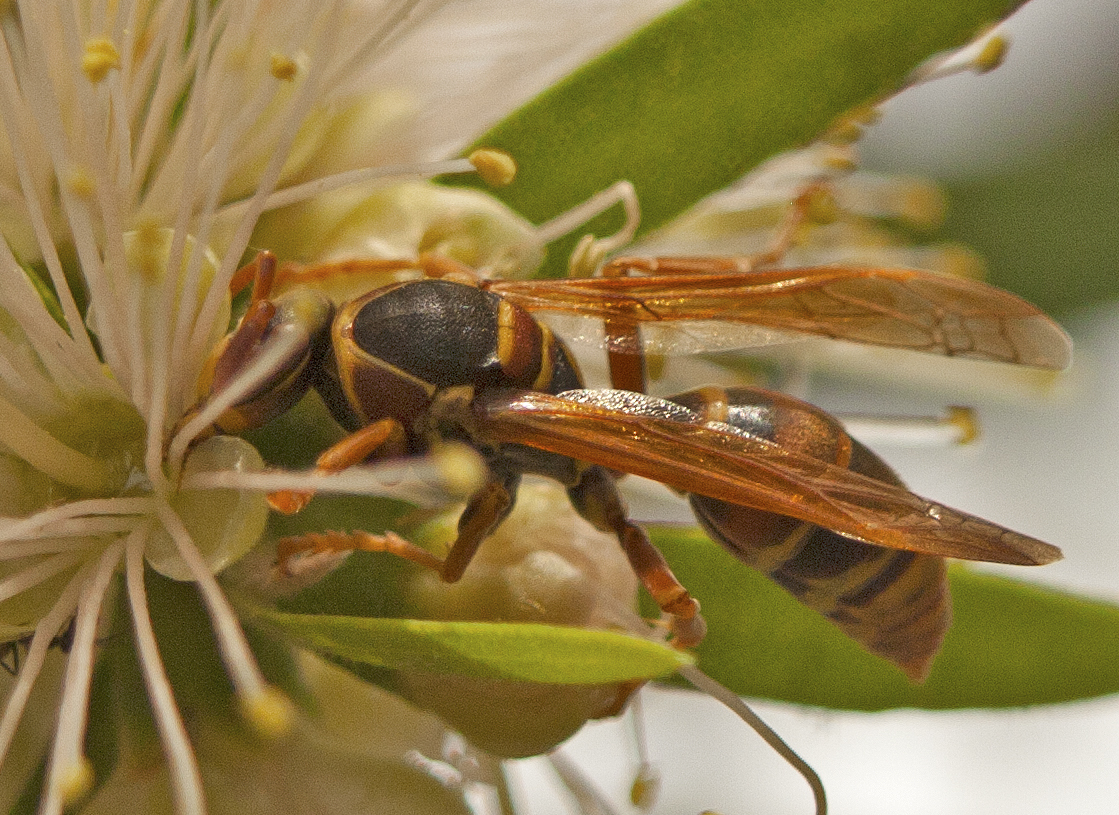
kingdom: Animalia
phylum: Arthropoda
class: Insecta
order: Hymenoptera
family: Eumenidae
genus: Polistes
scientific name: Polistes humilis
